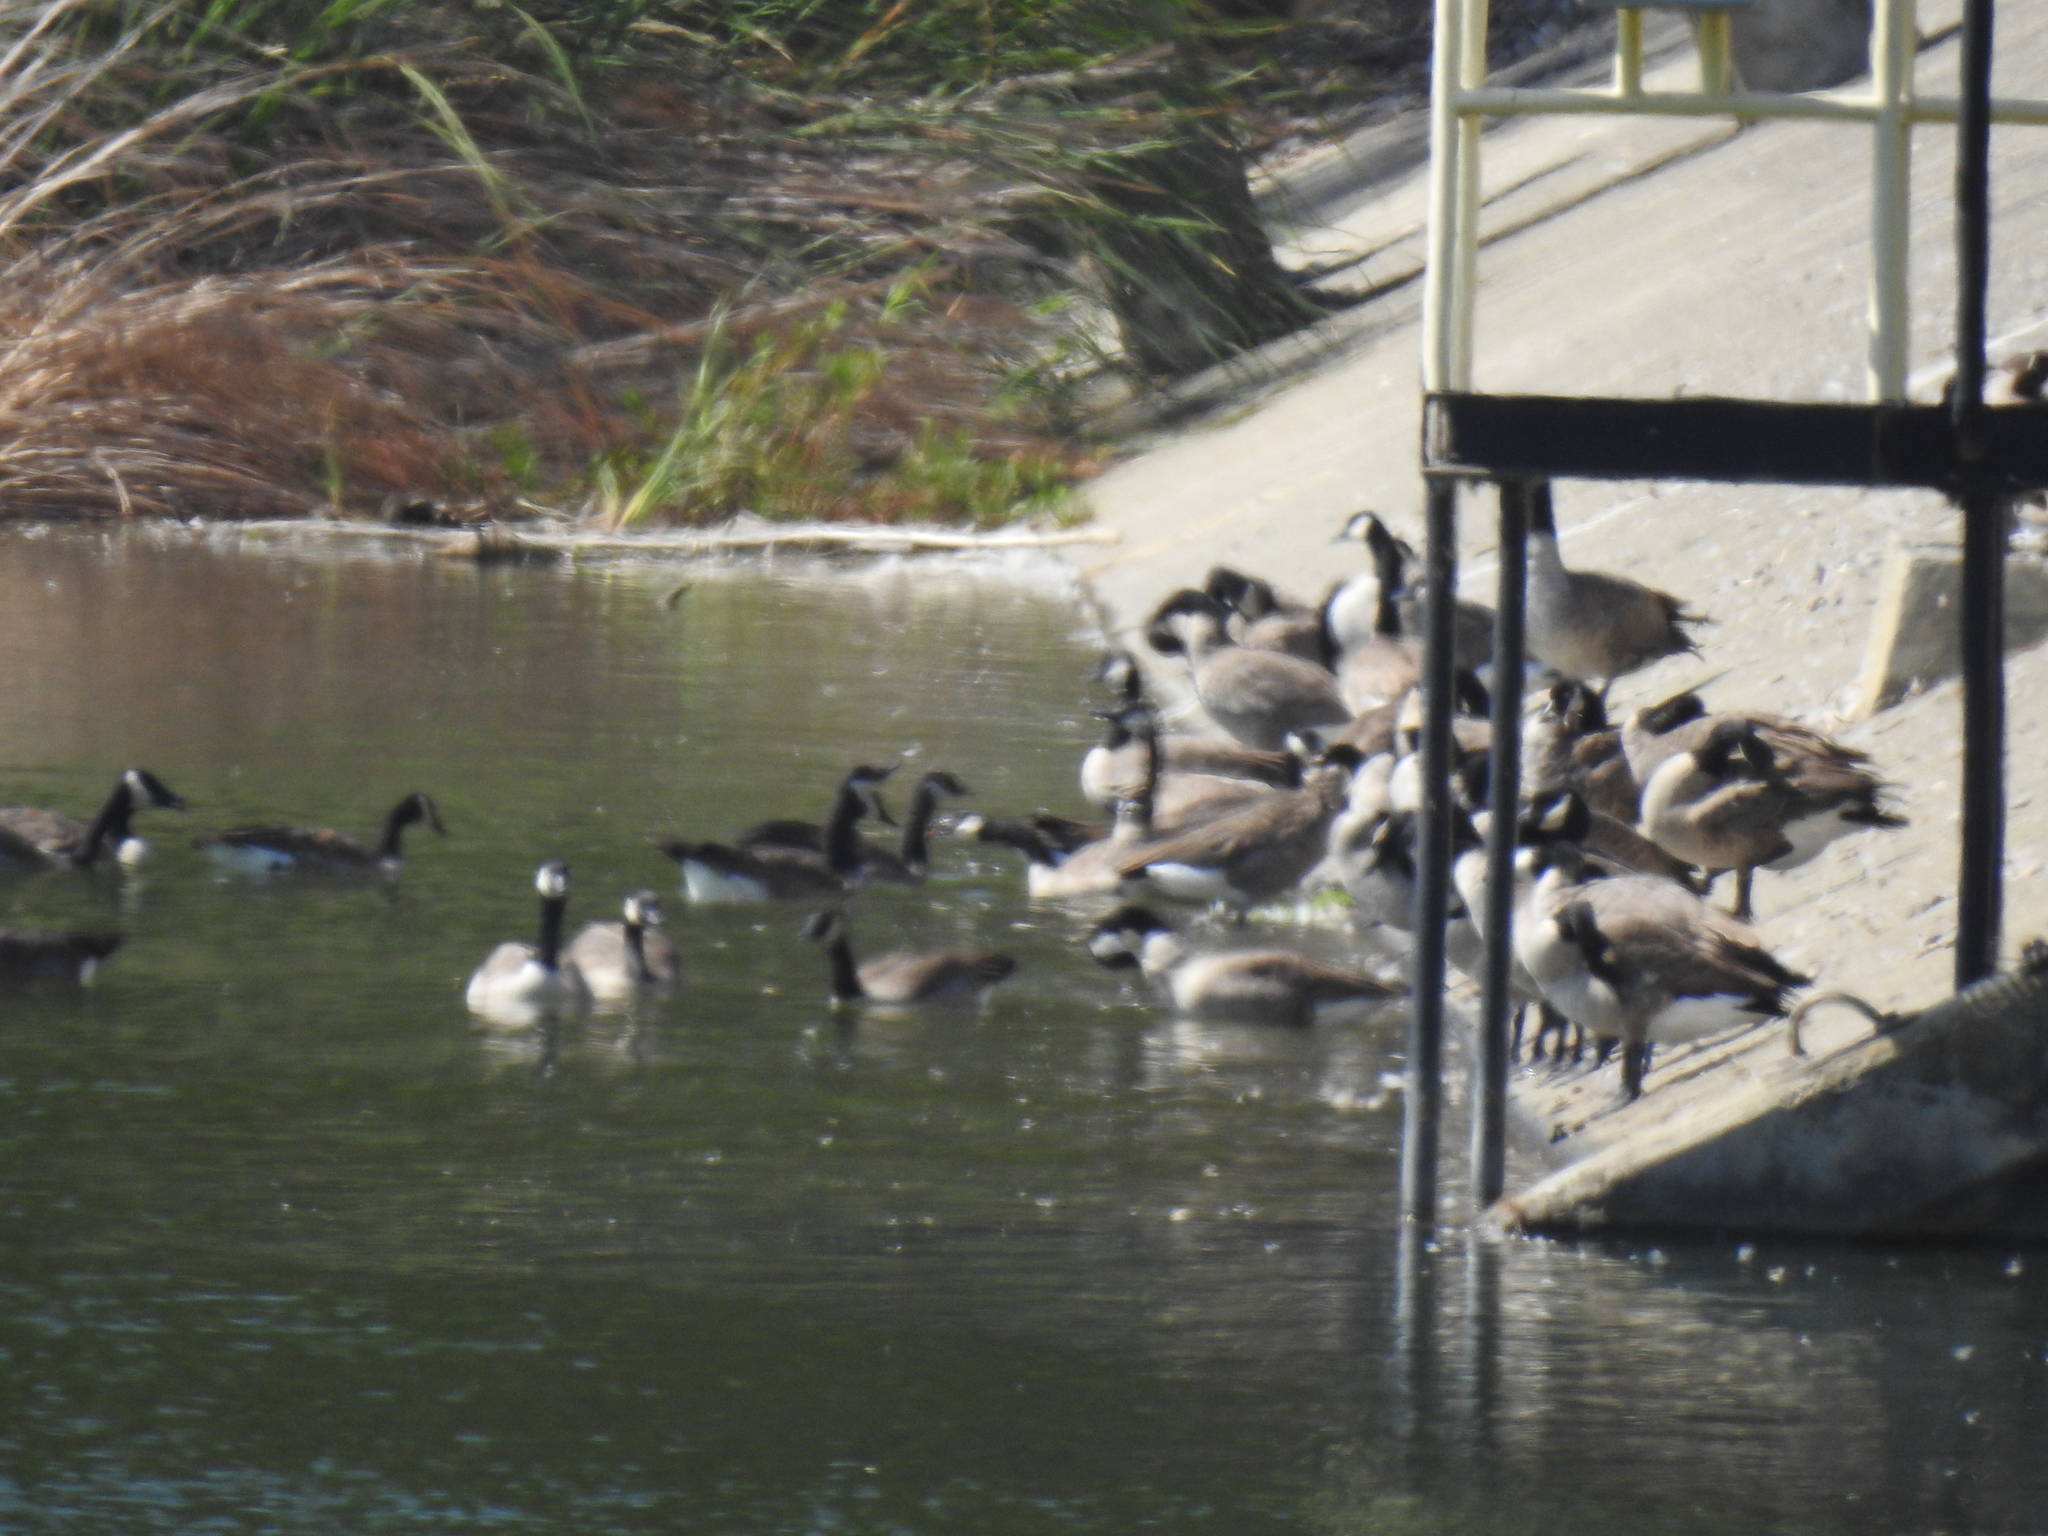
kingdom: Animalia
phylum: Chordata
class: Aves
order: Anseriformes
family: Anatidae
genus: Branta
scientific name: Branta canadensis
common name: Canada goose
